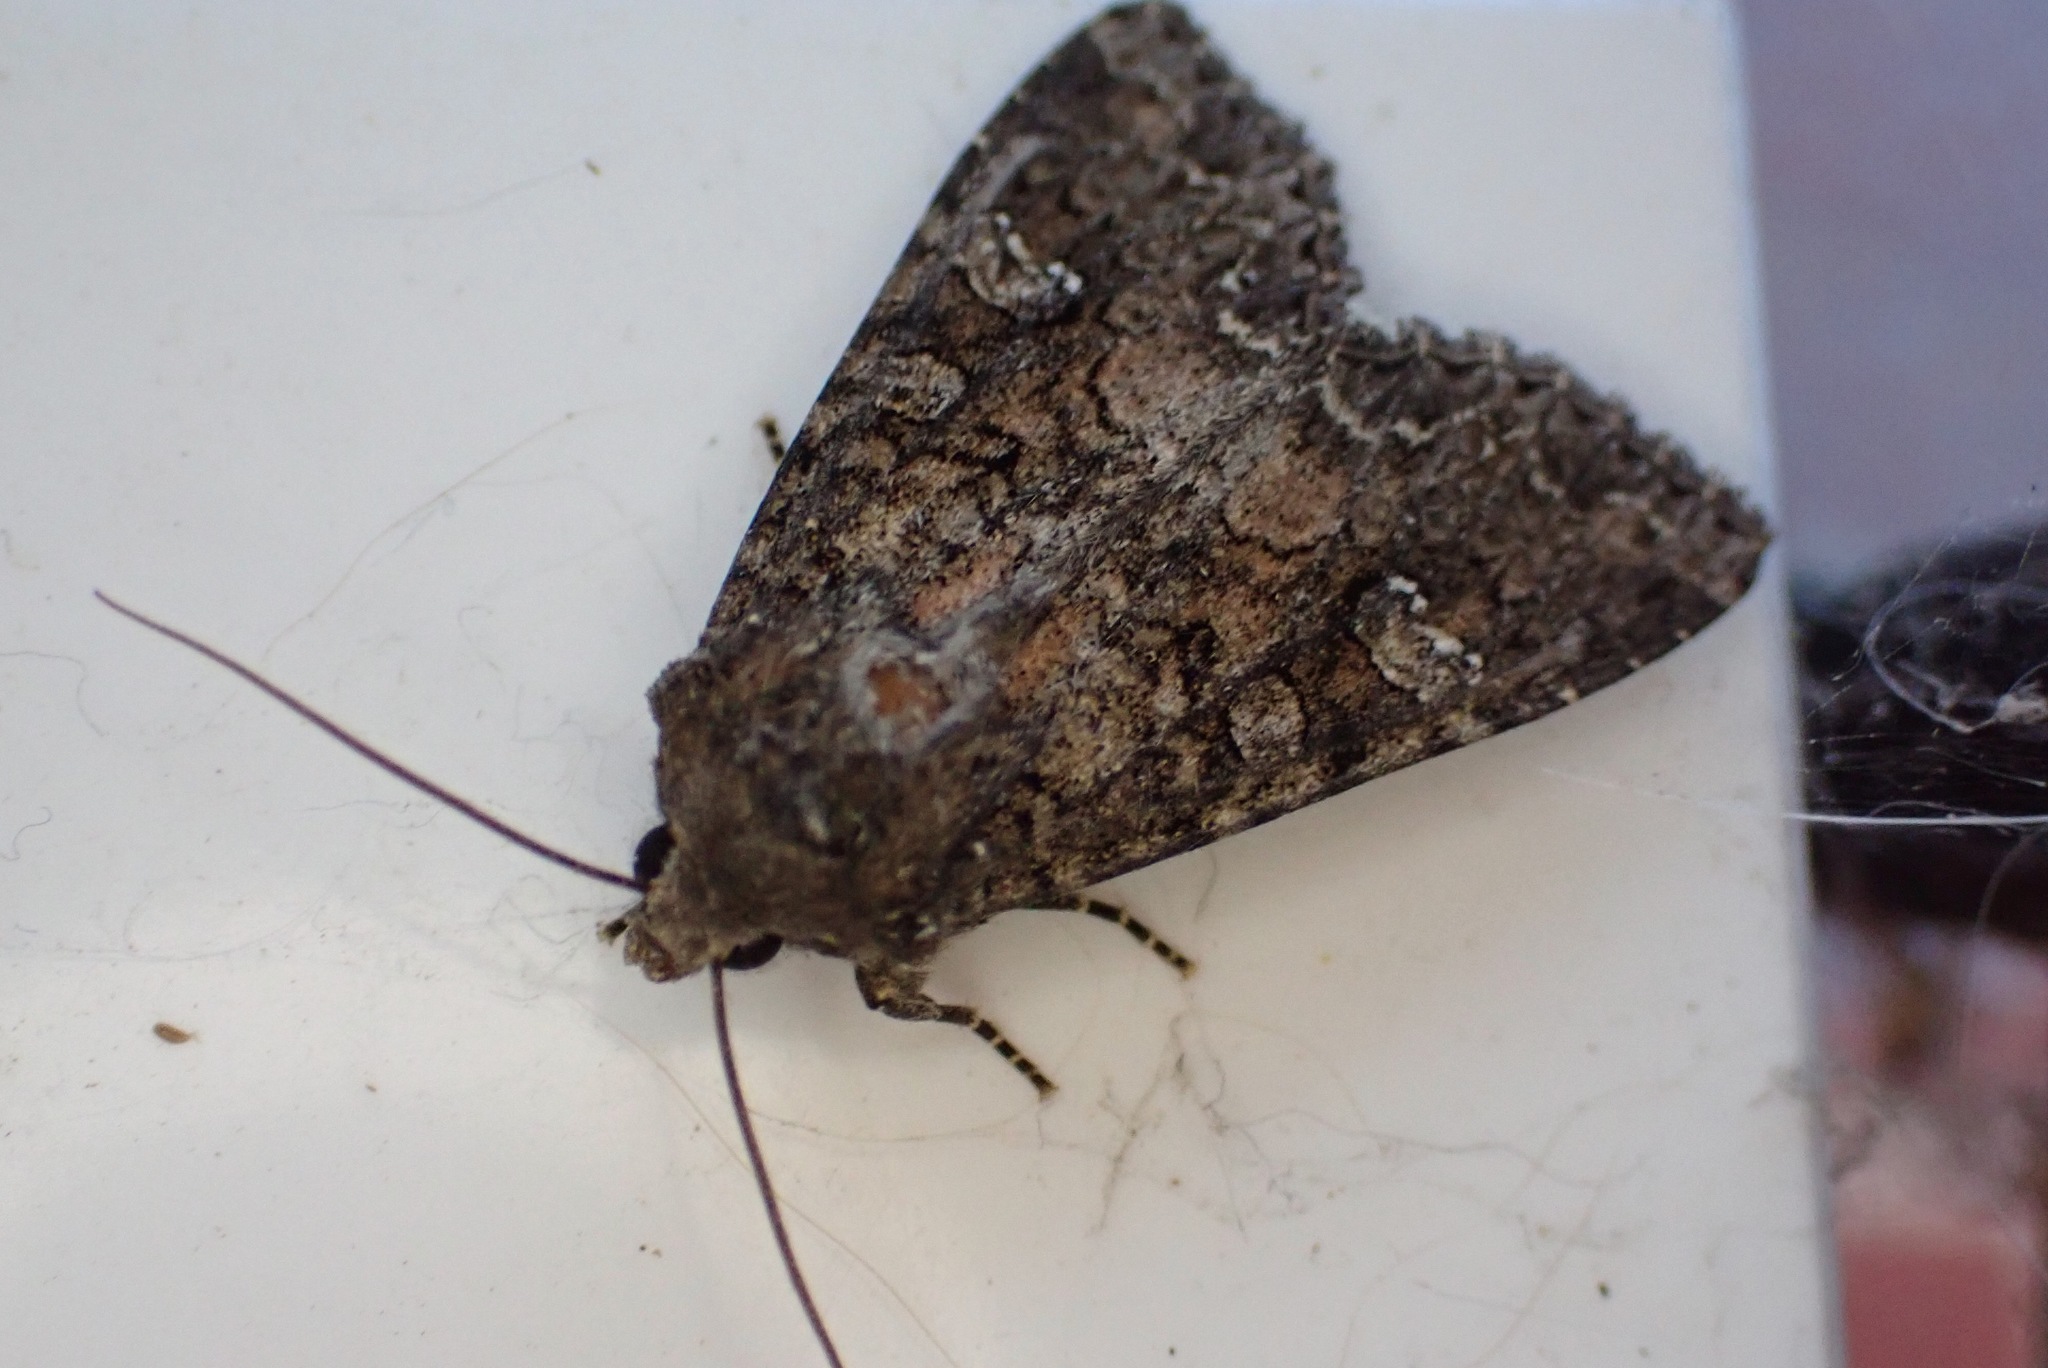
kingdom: Animalia
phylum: Arthropoda
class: Insecta
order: Lepidoptera
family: Noctuidae
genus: Mamestra
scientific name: Mamestra brassicae
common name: Cabbage moth
